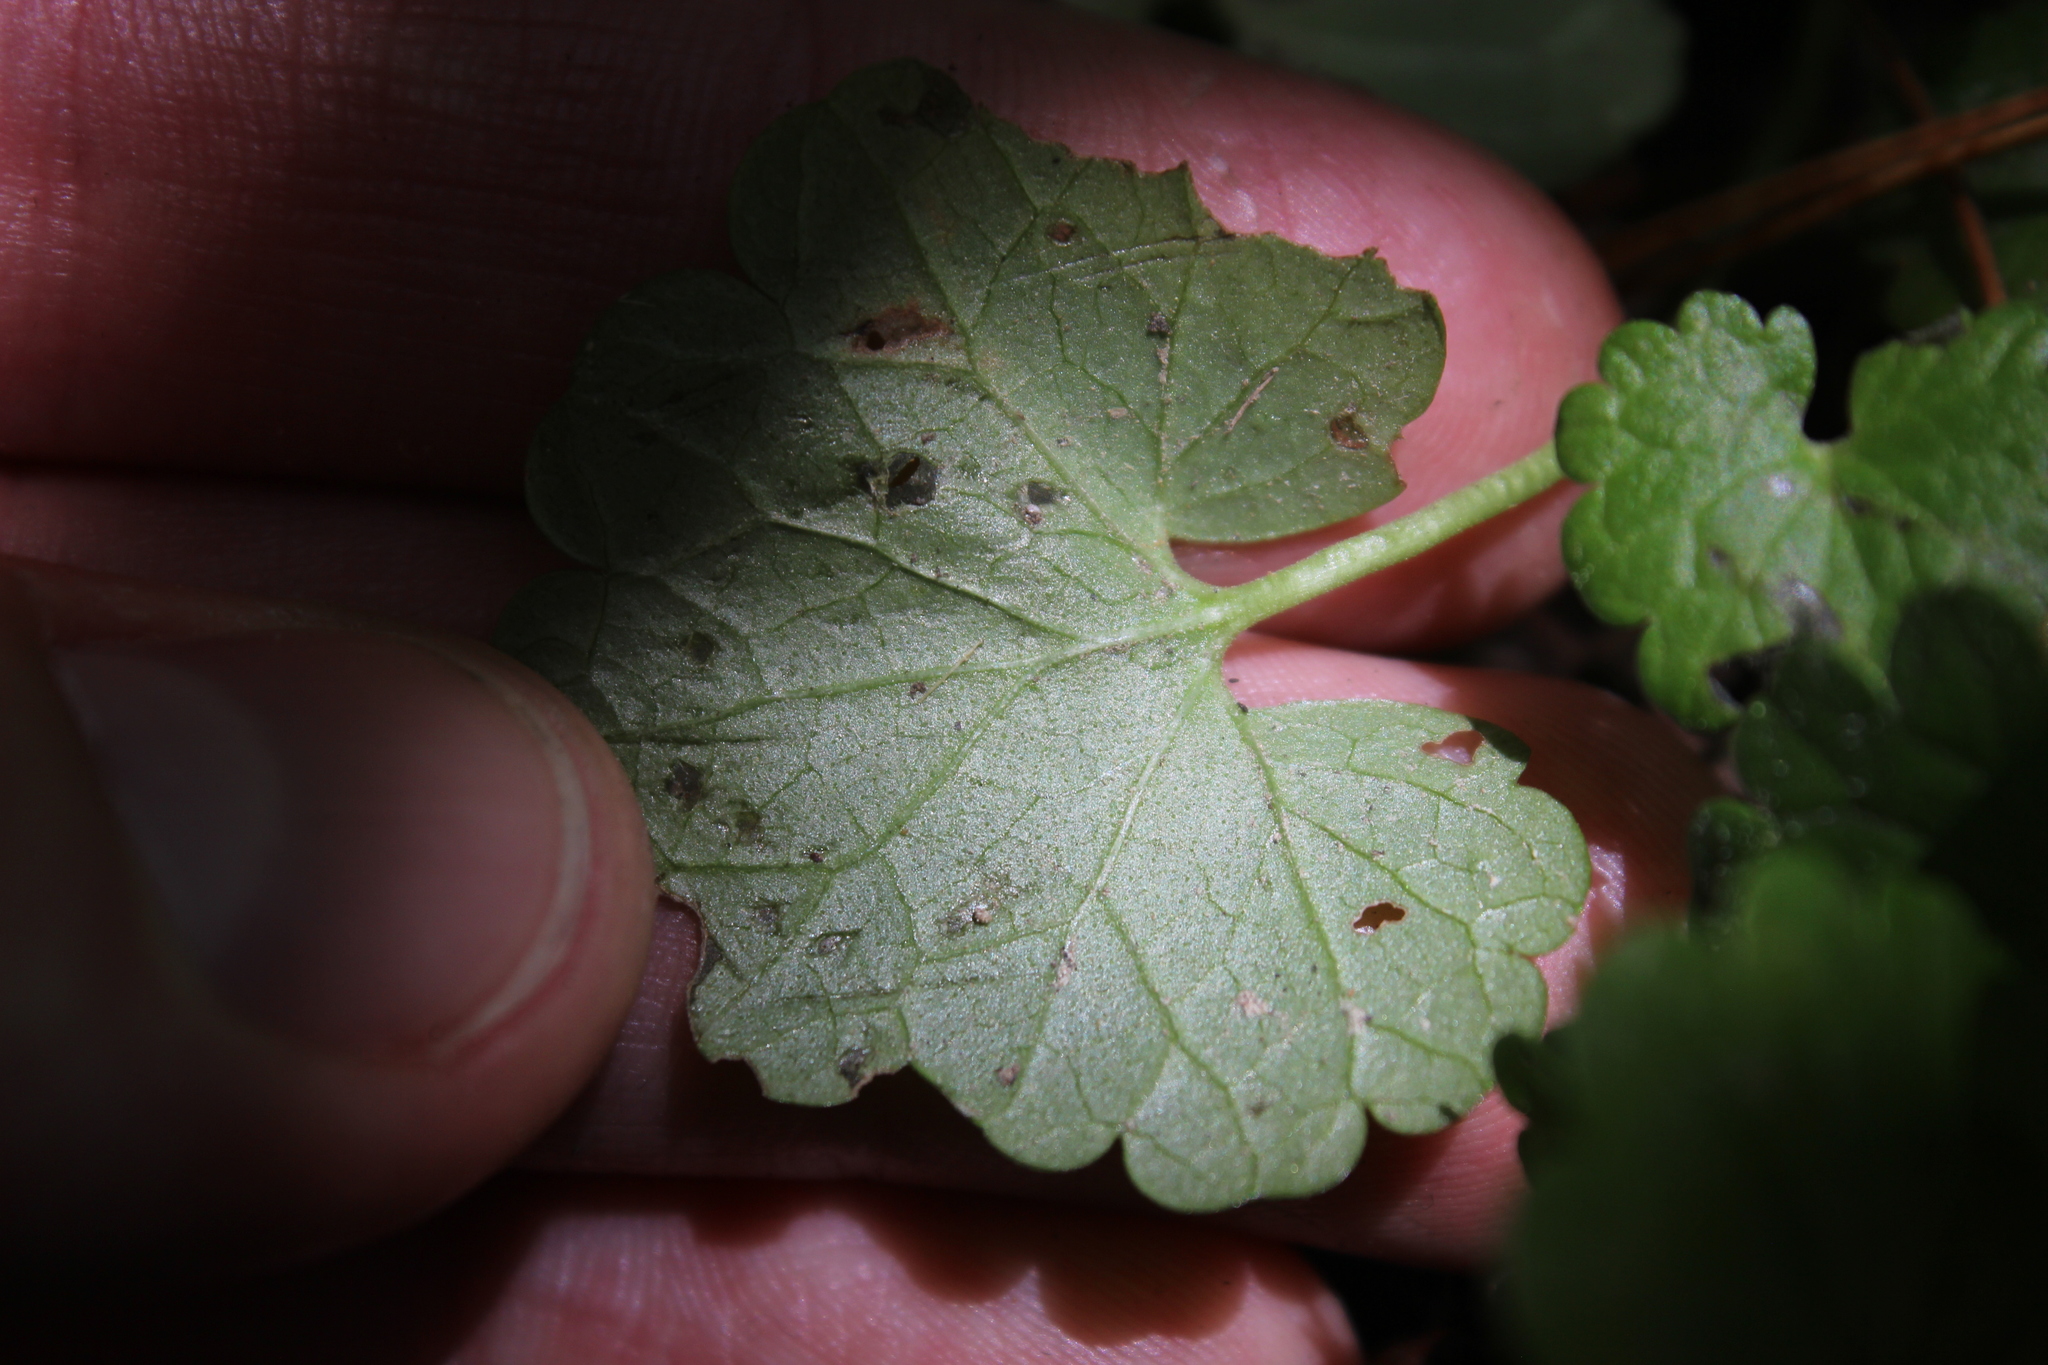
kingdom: Plantae
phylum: Tracheophyta
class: Magnoliopsida
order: Lamiales
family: Lamiaceae
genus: Glechoma
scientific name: Glechoma hederacea
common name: Ground ivy
